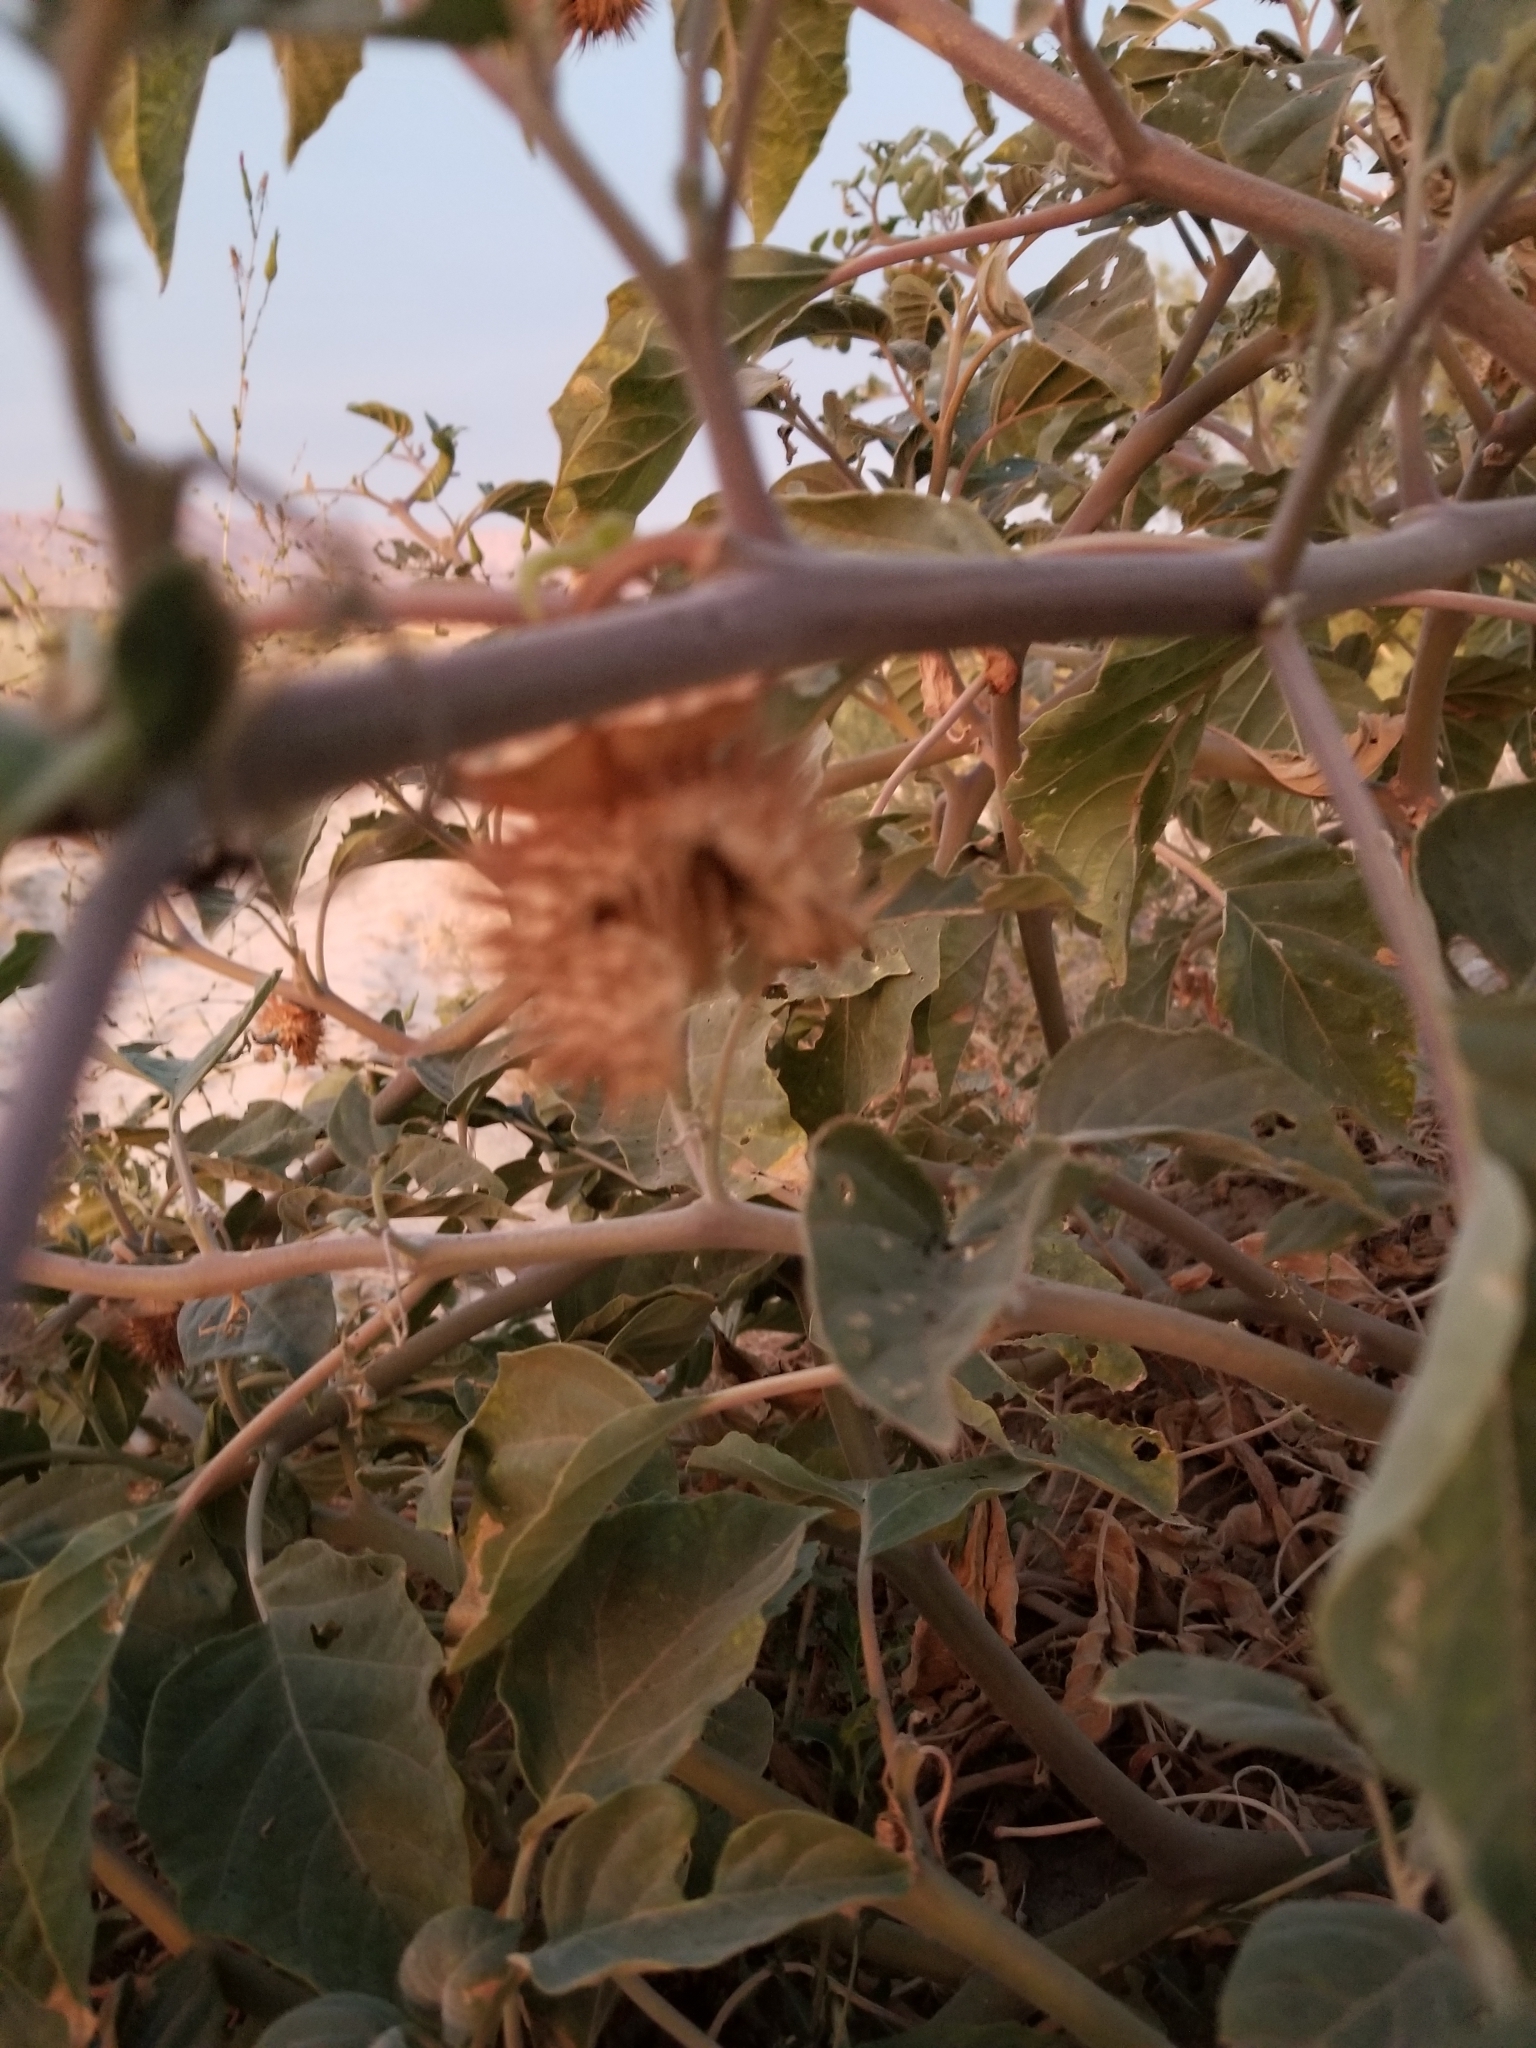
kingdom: Plantae
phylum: Tracheophyta
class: Magnoliopsida
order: Solanales
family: Solanaceae
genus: Datura
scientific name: Datura wrightii
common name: Sacred thorn-apple
